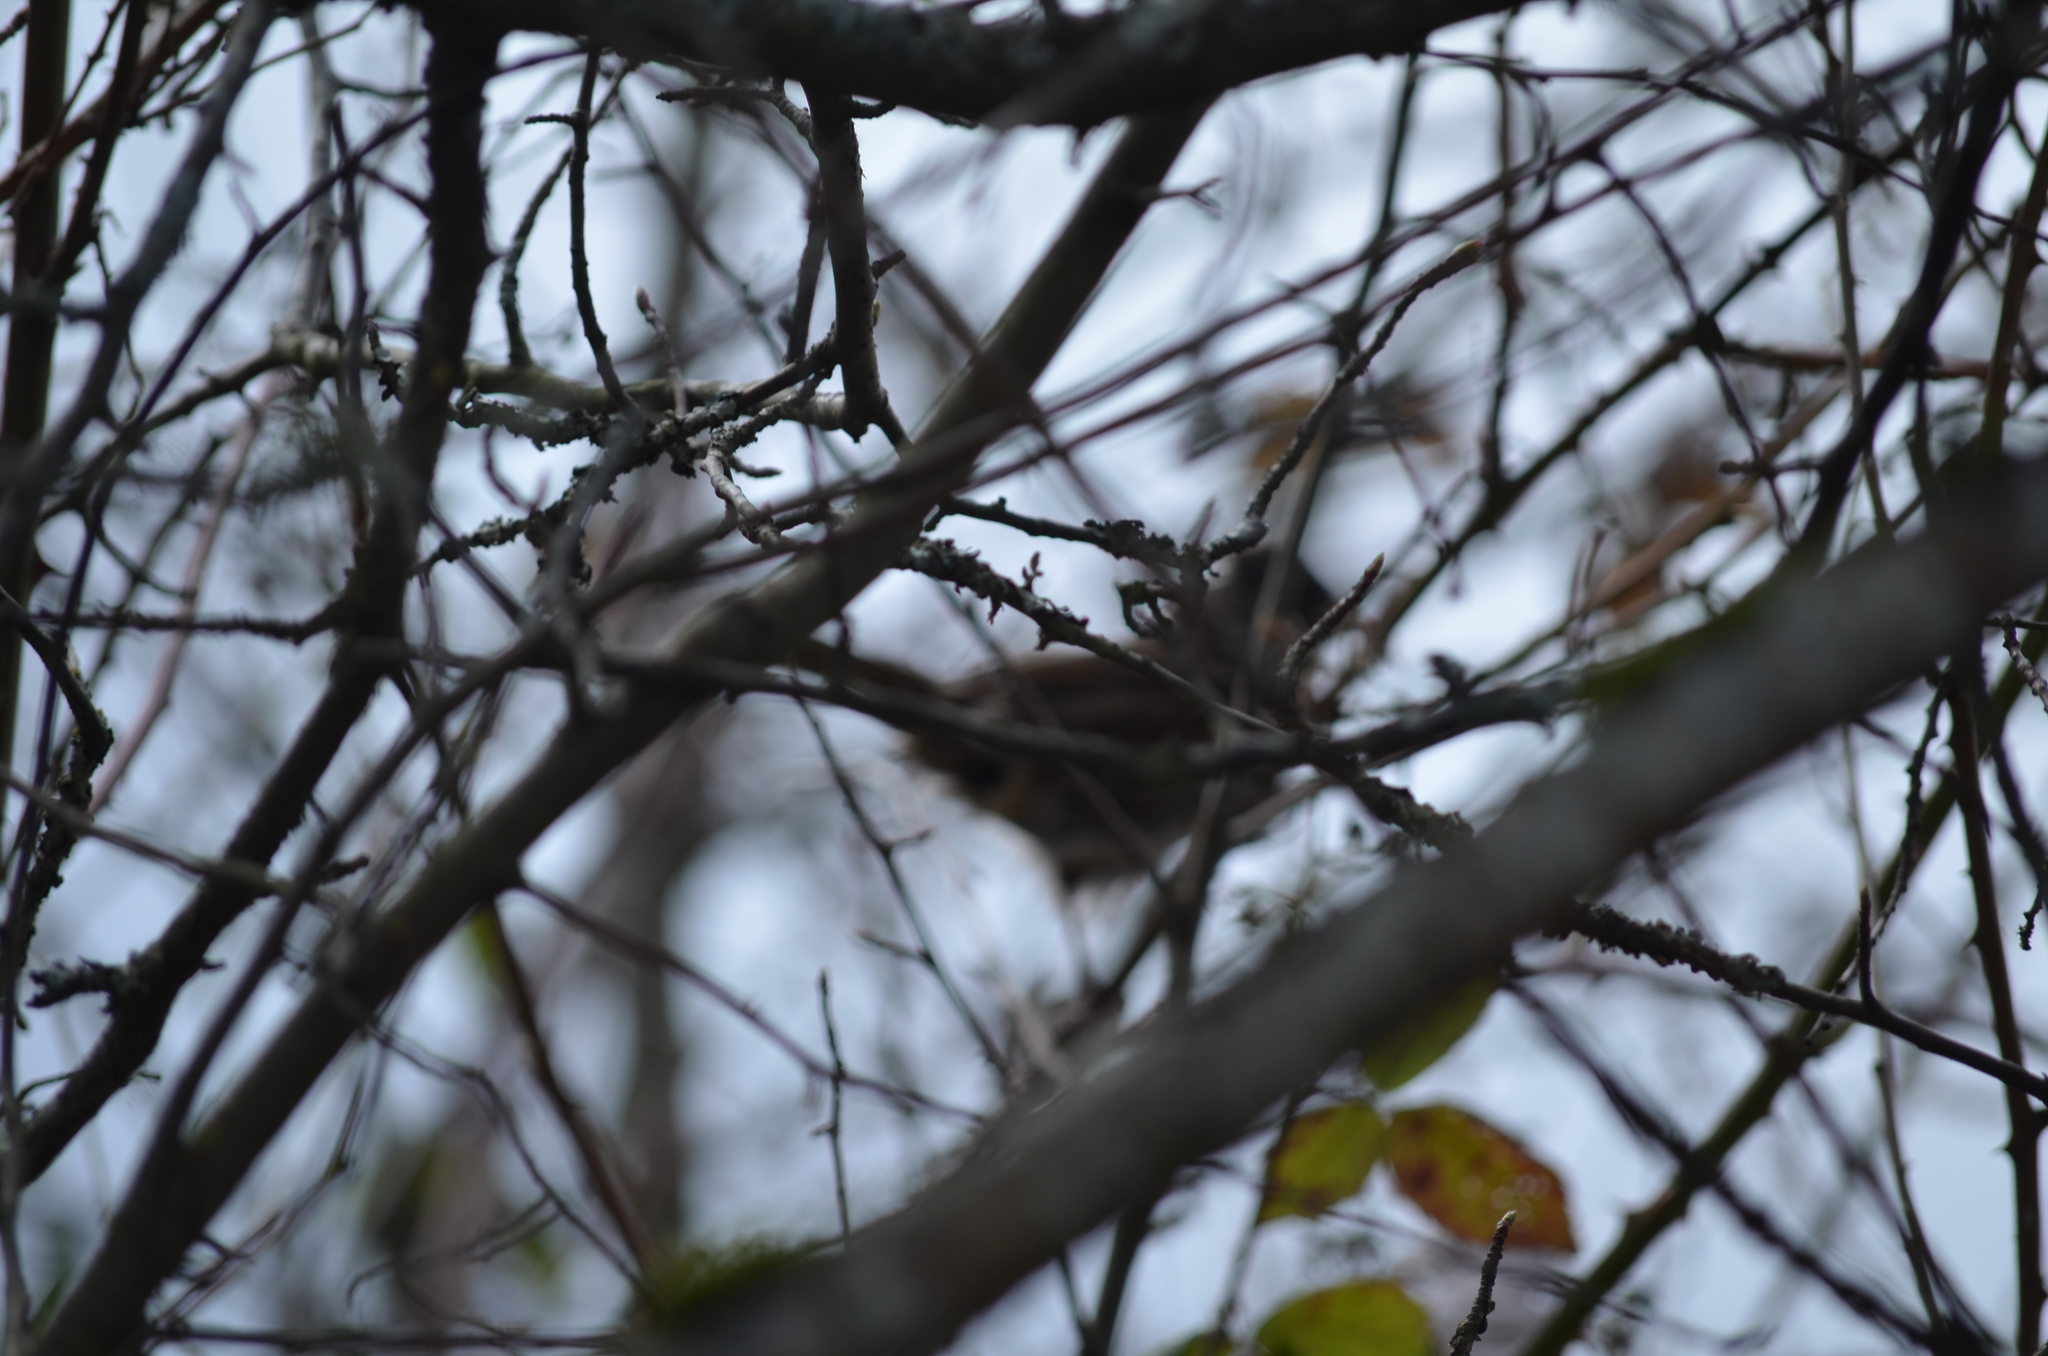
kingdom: Animalia
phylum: Chordata
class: Aves
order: Passeriformes
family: Passerellidae
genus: Zonotrichia
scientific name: Zonotrichia atricapilla
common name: Golden-crowned sparrow
